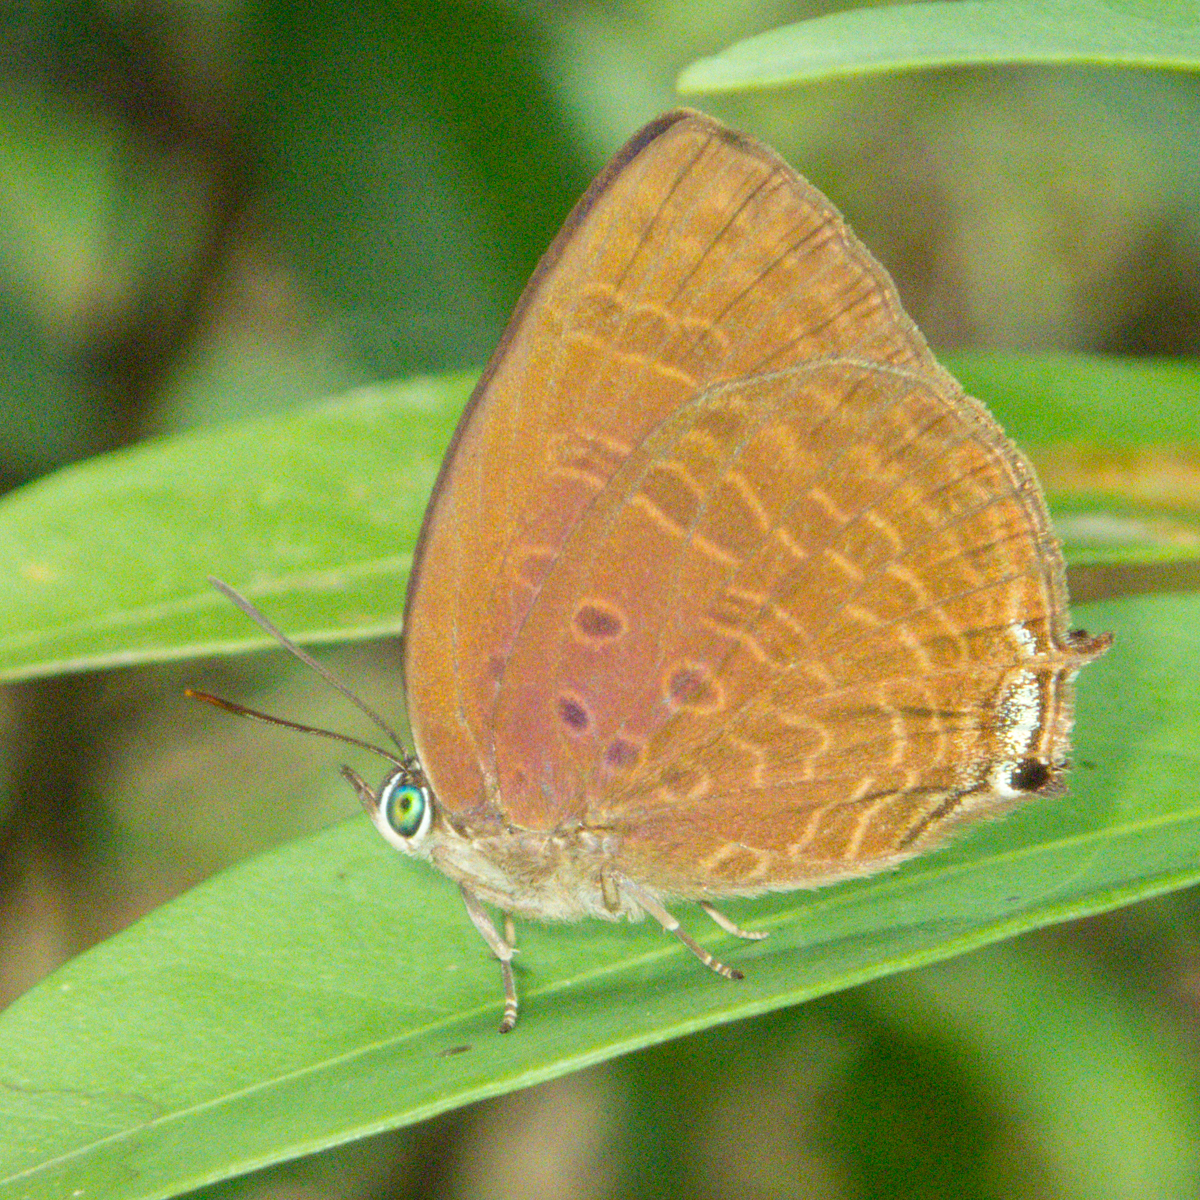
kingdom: Animalia
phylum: Arthropoda
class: Insecta
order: Lepidoptera
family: Lycaenidae
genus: Arhopala
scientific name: Arhopala agrata
